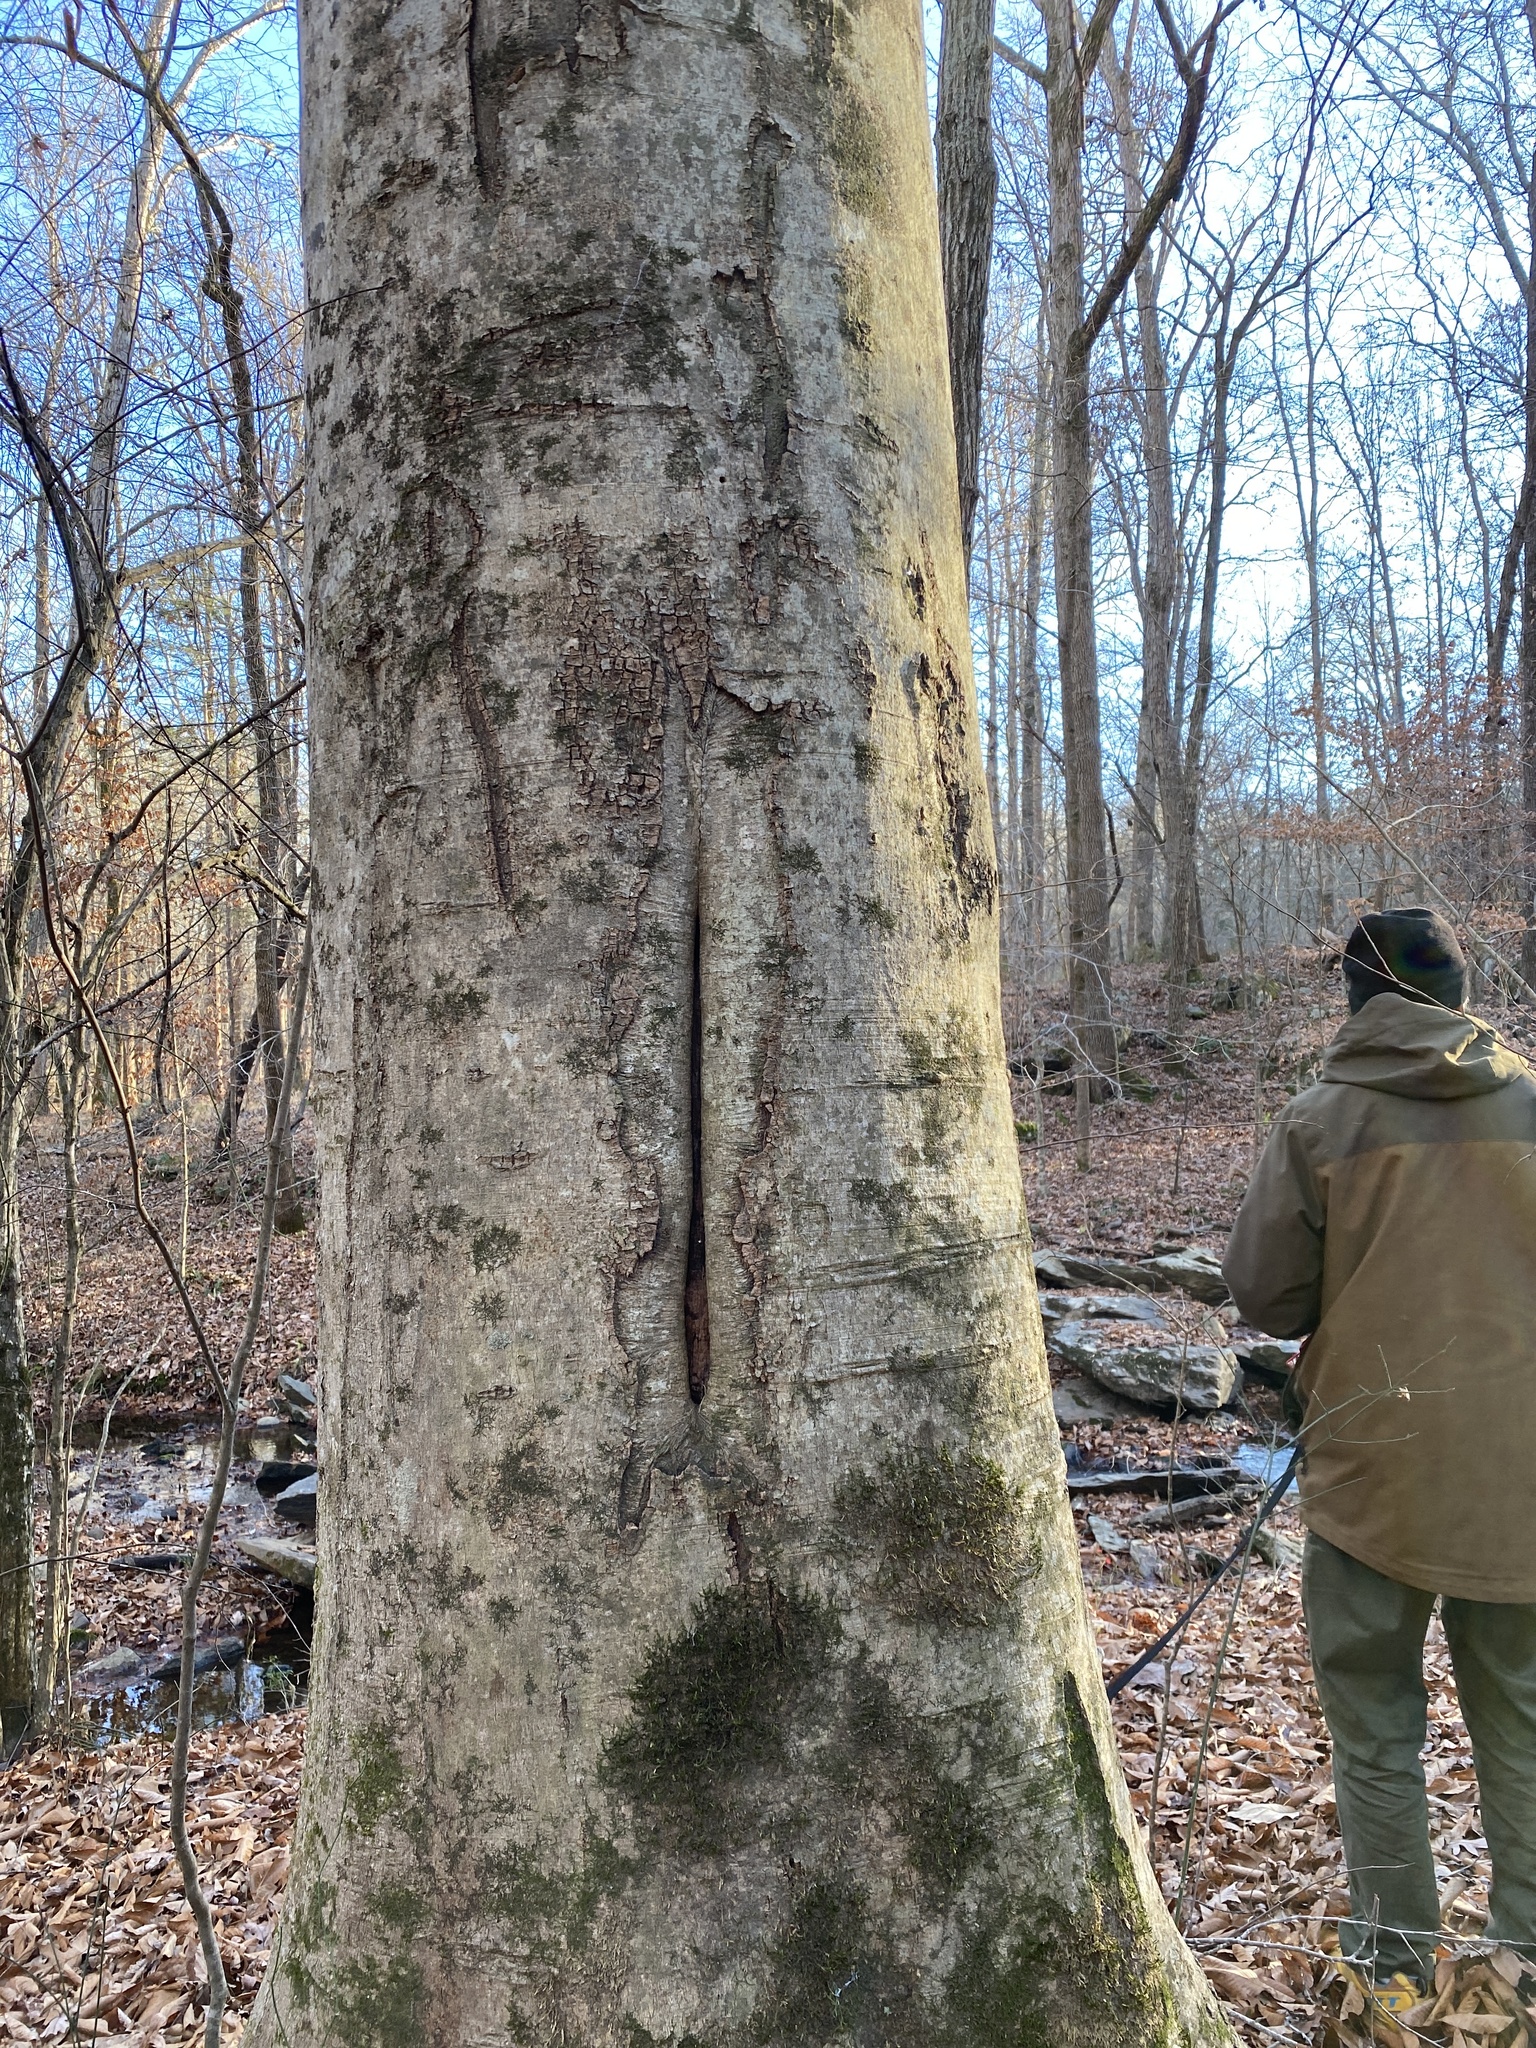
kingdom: Plantae
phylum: Tracheophyta
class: Magnoliopsida
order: Fagales
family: Fagaceae
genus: Fagus
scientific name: Fagus grandifolia
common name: American beech
